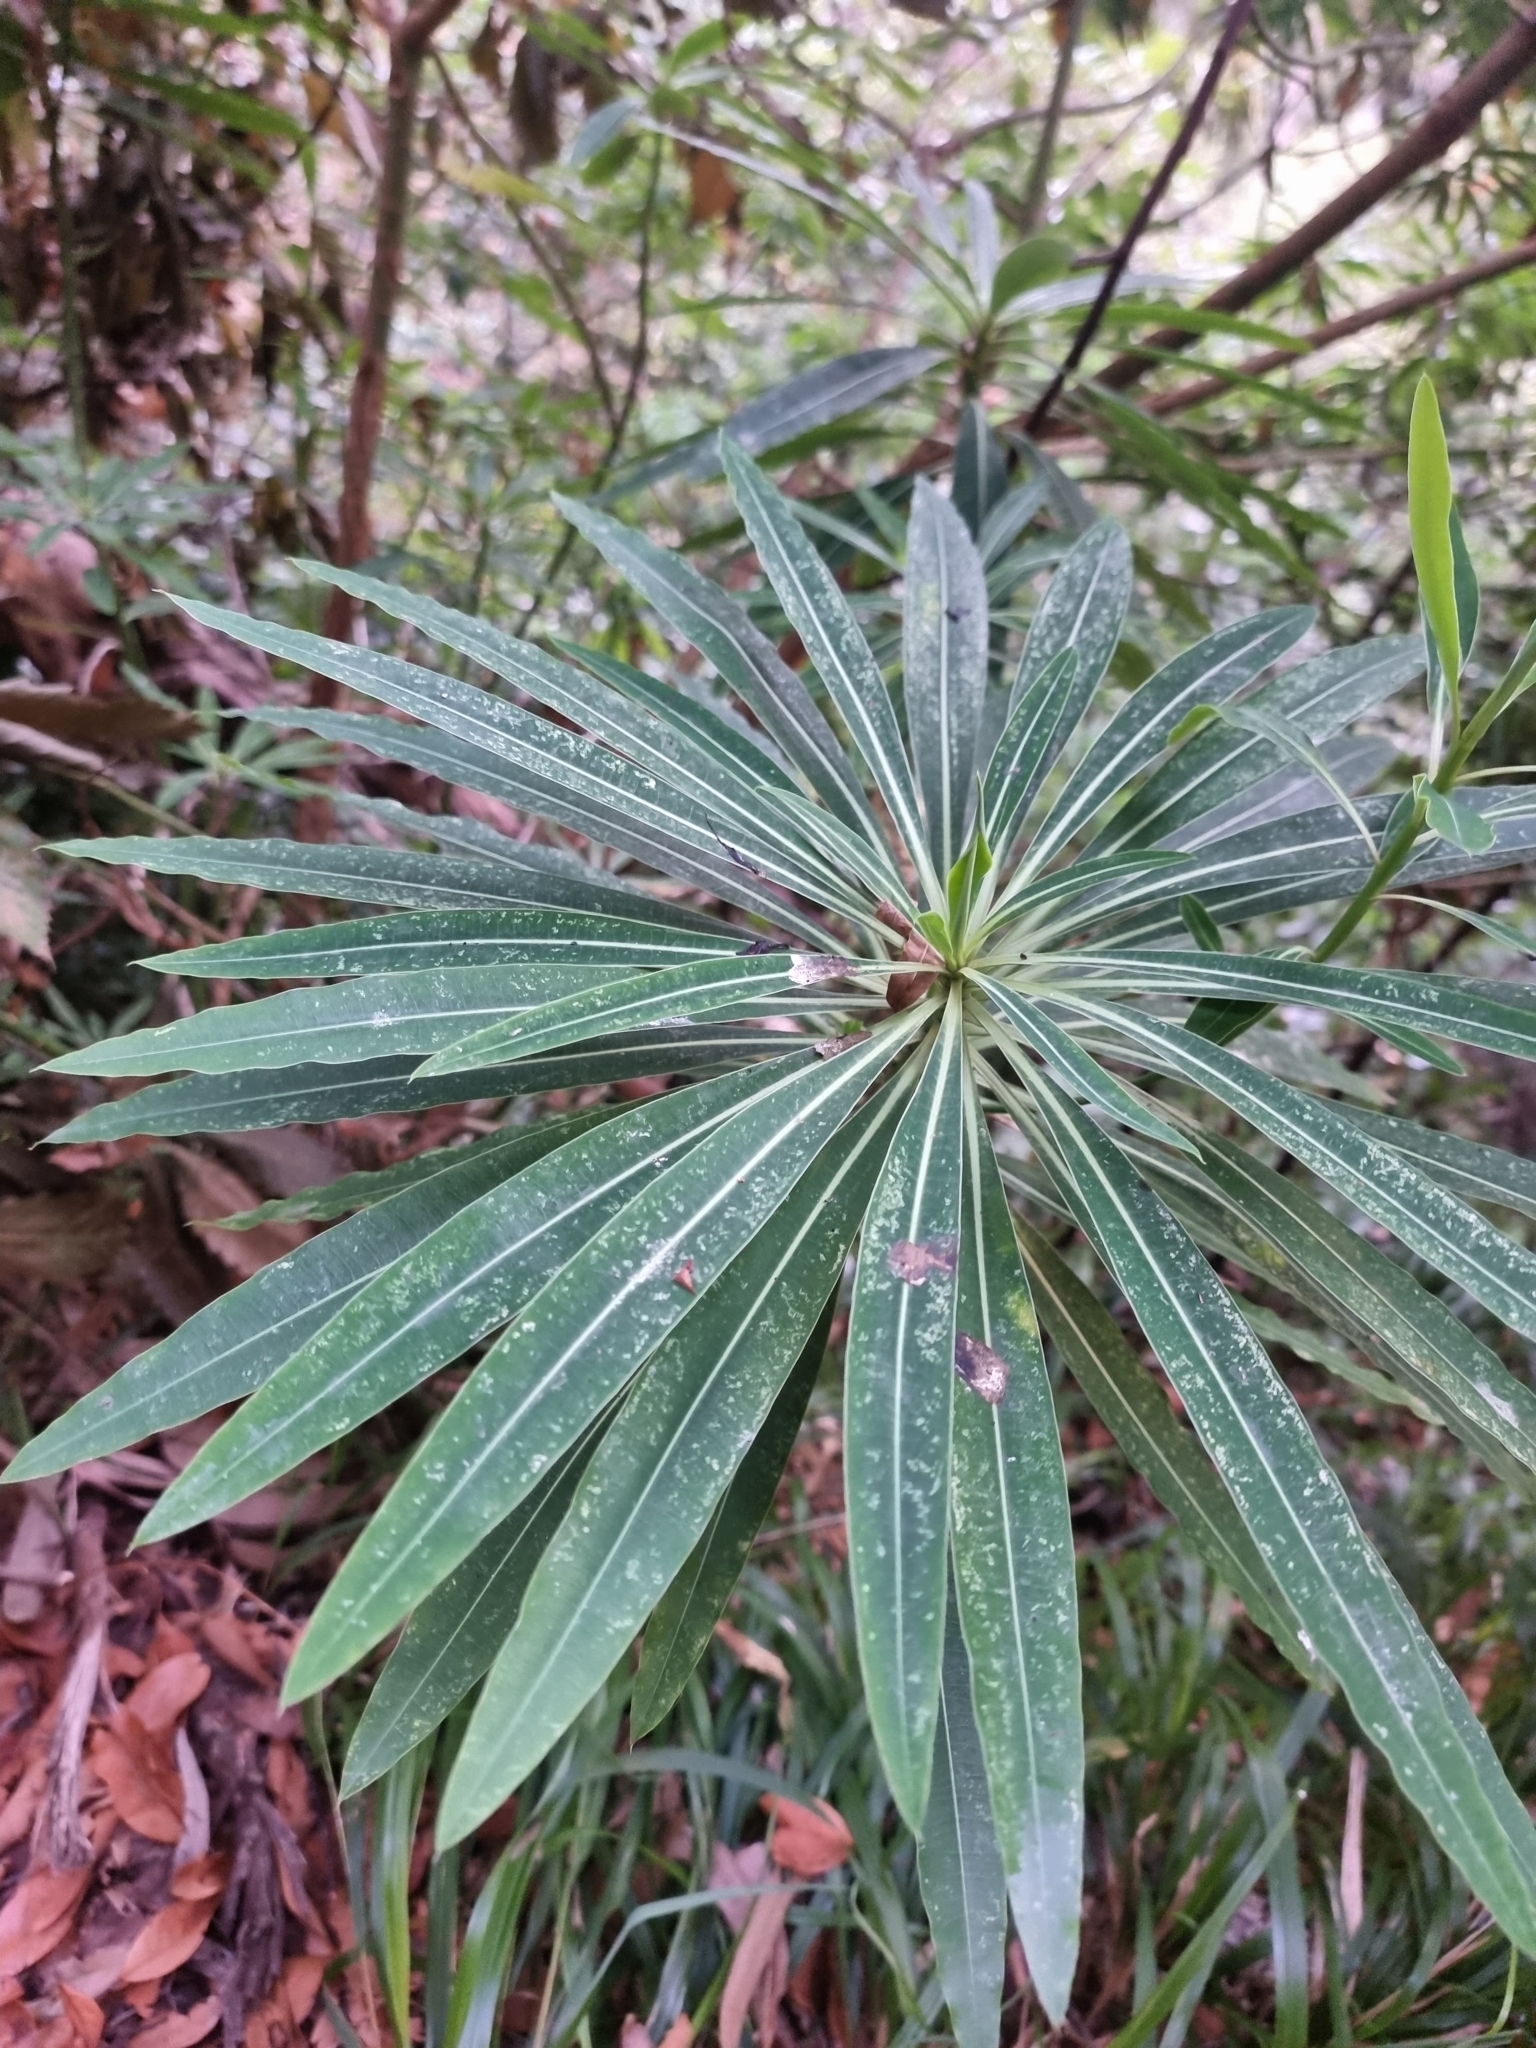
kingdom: Plantae
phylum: Tracheophyta
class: Magnoliopsida
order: Malpighiales
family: Euphorbiaceae
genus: Euphorbia
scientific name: Euphorbia mellifera
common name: Canary spurge
